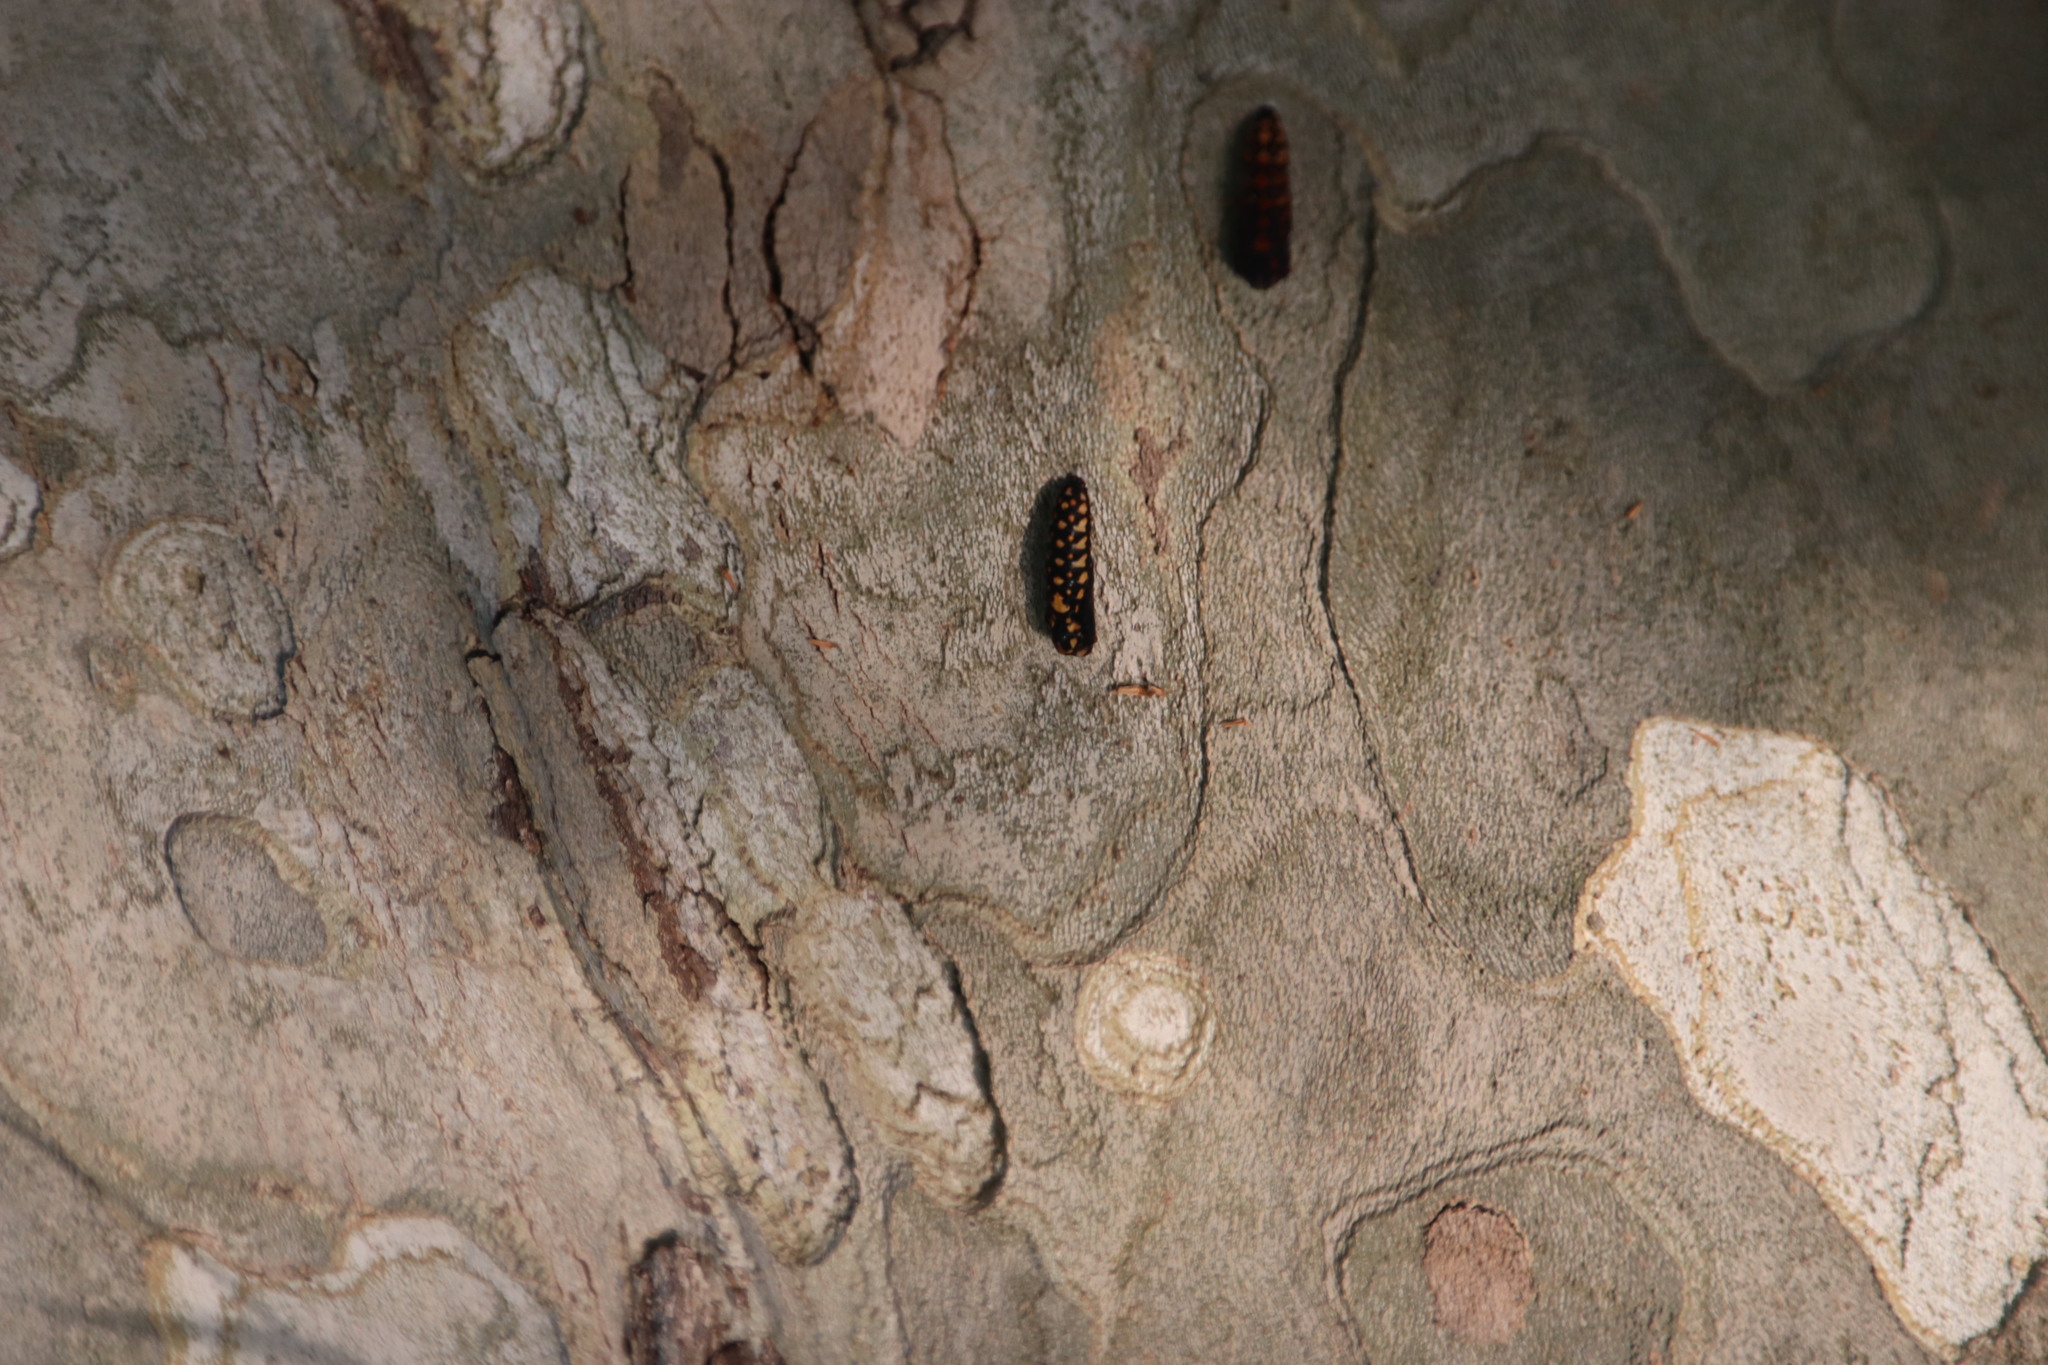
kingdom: Animalia
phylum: Arthropoda
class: Insecta
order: Lepidoptera
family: Nymphalidae
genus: Acraea
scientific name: Acraea horta
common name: Garden acraea
